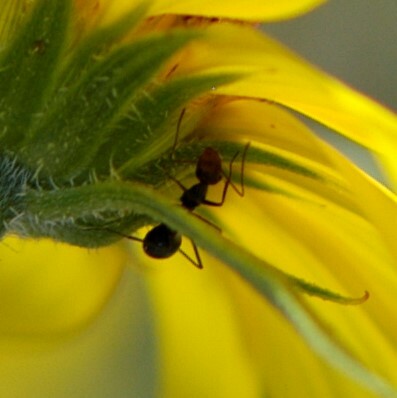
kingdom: Animalia
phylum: Arthropoda
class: Insecta
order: Hymenoptera
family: Formicidae
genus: Endiodioctes
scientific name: Endiodioctes
